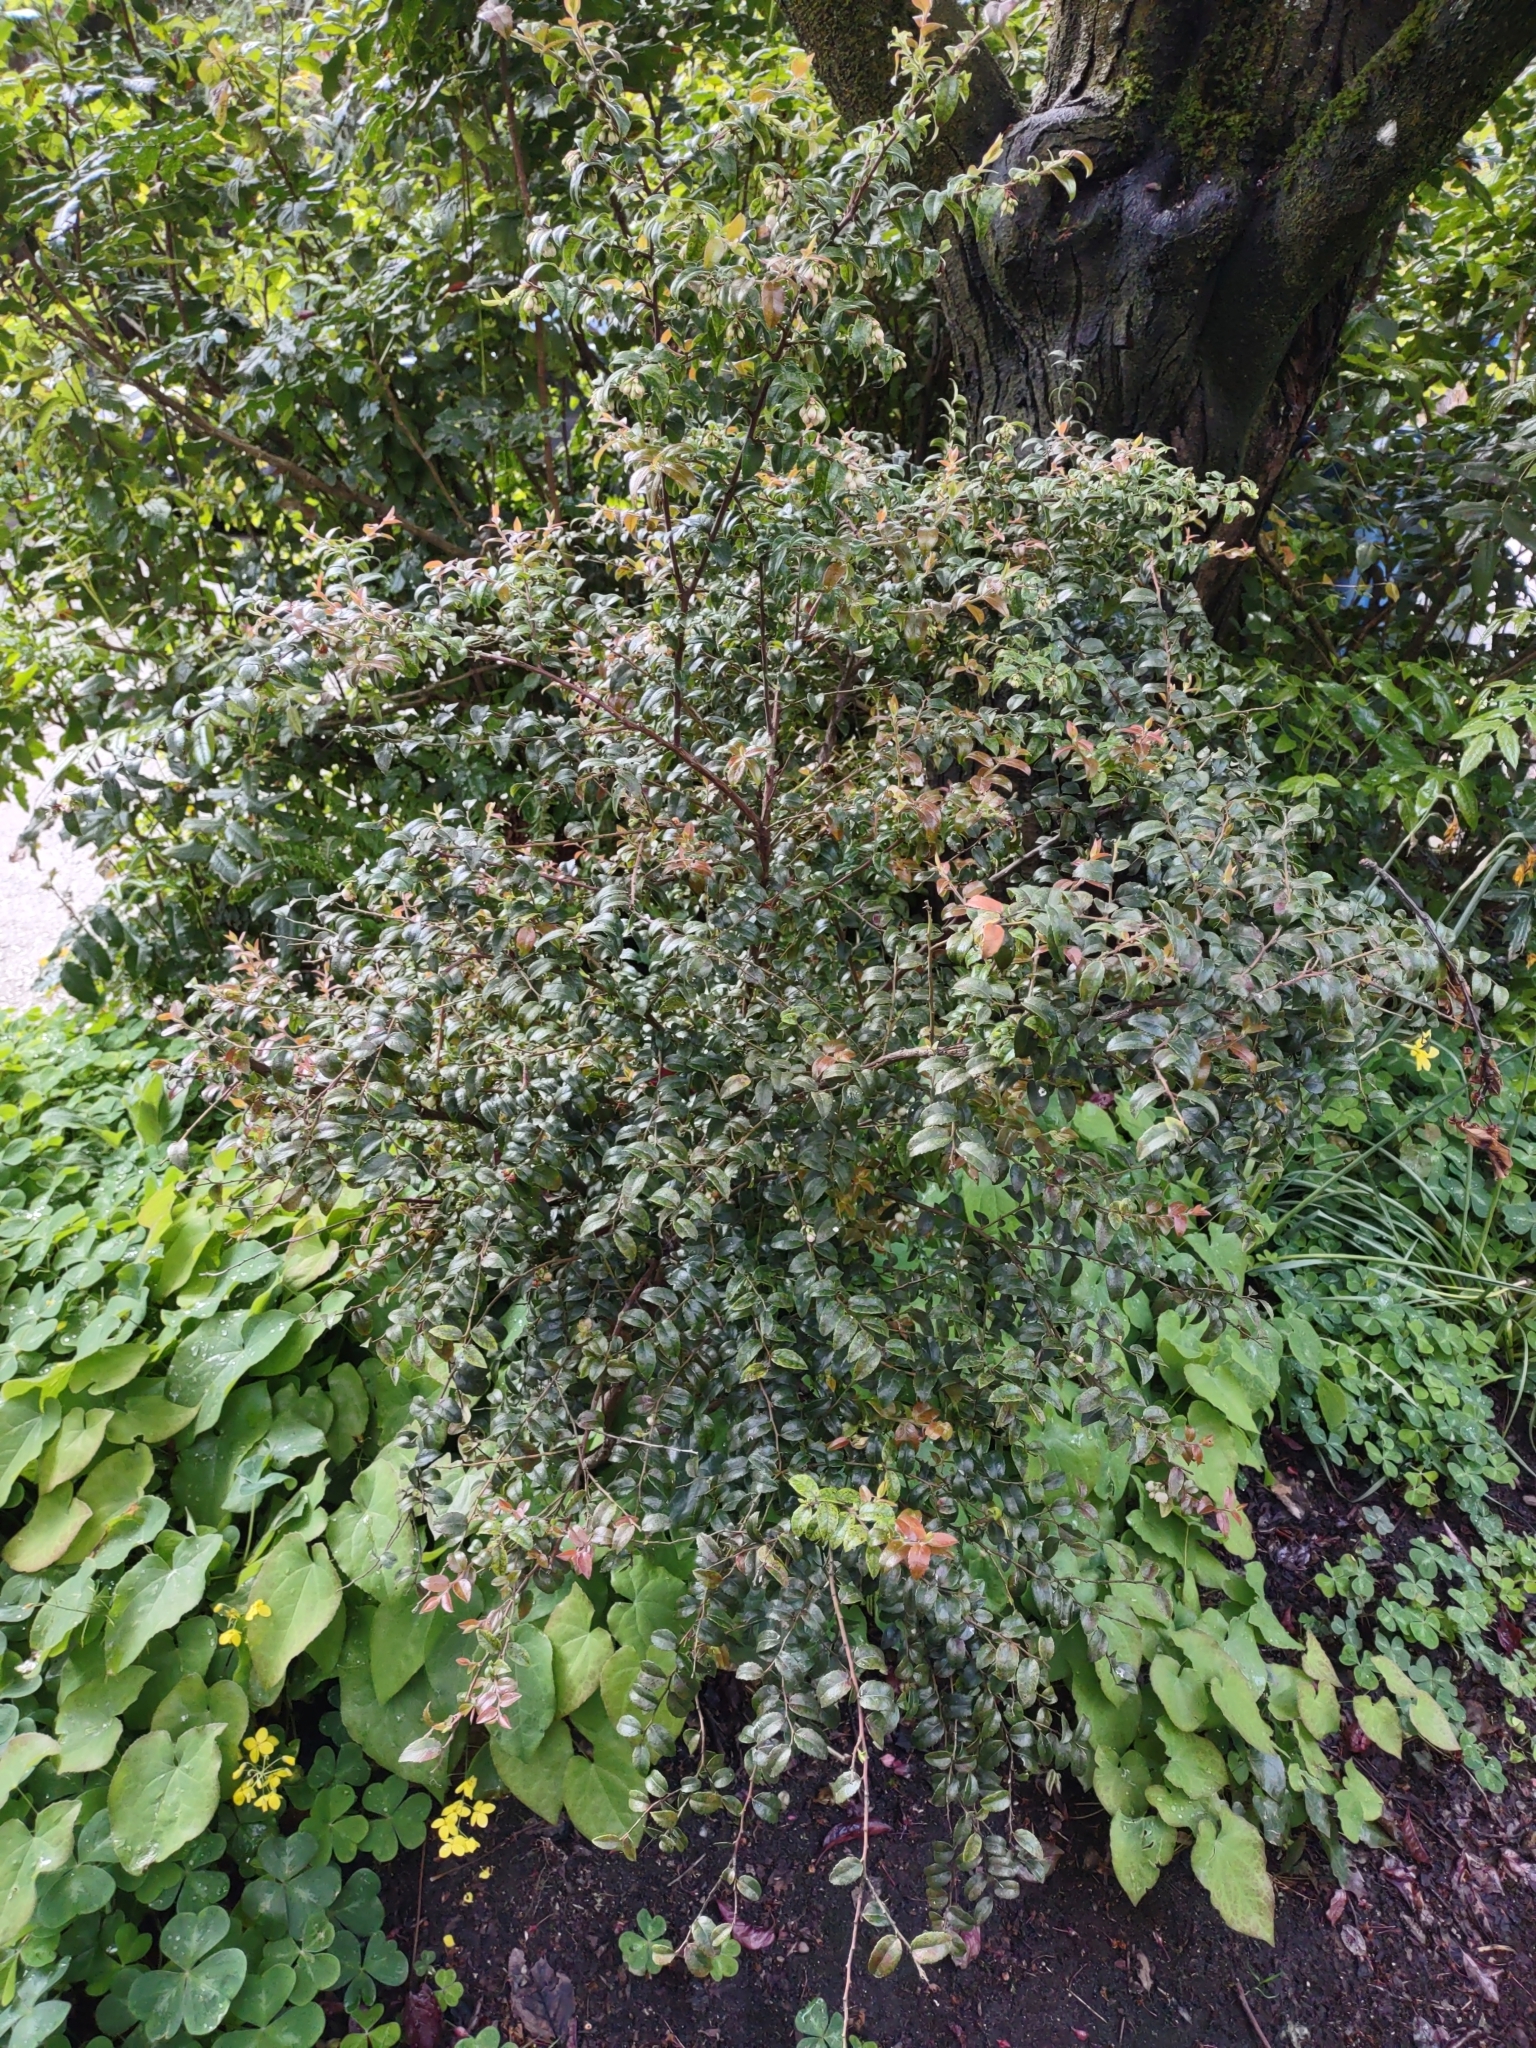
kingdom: Plantae
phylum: Tracheophyta
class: Magnoliopsida
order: Ericales
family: Ericaceae
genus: Vaccinium
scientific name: Vaccinium ovatum
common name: California-huckleberry
